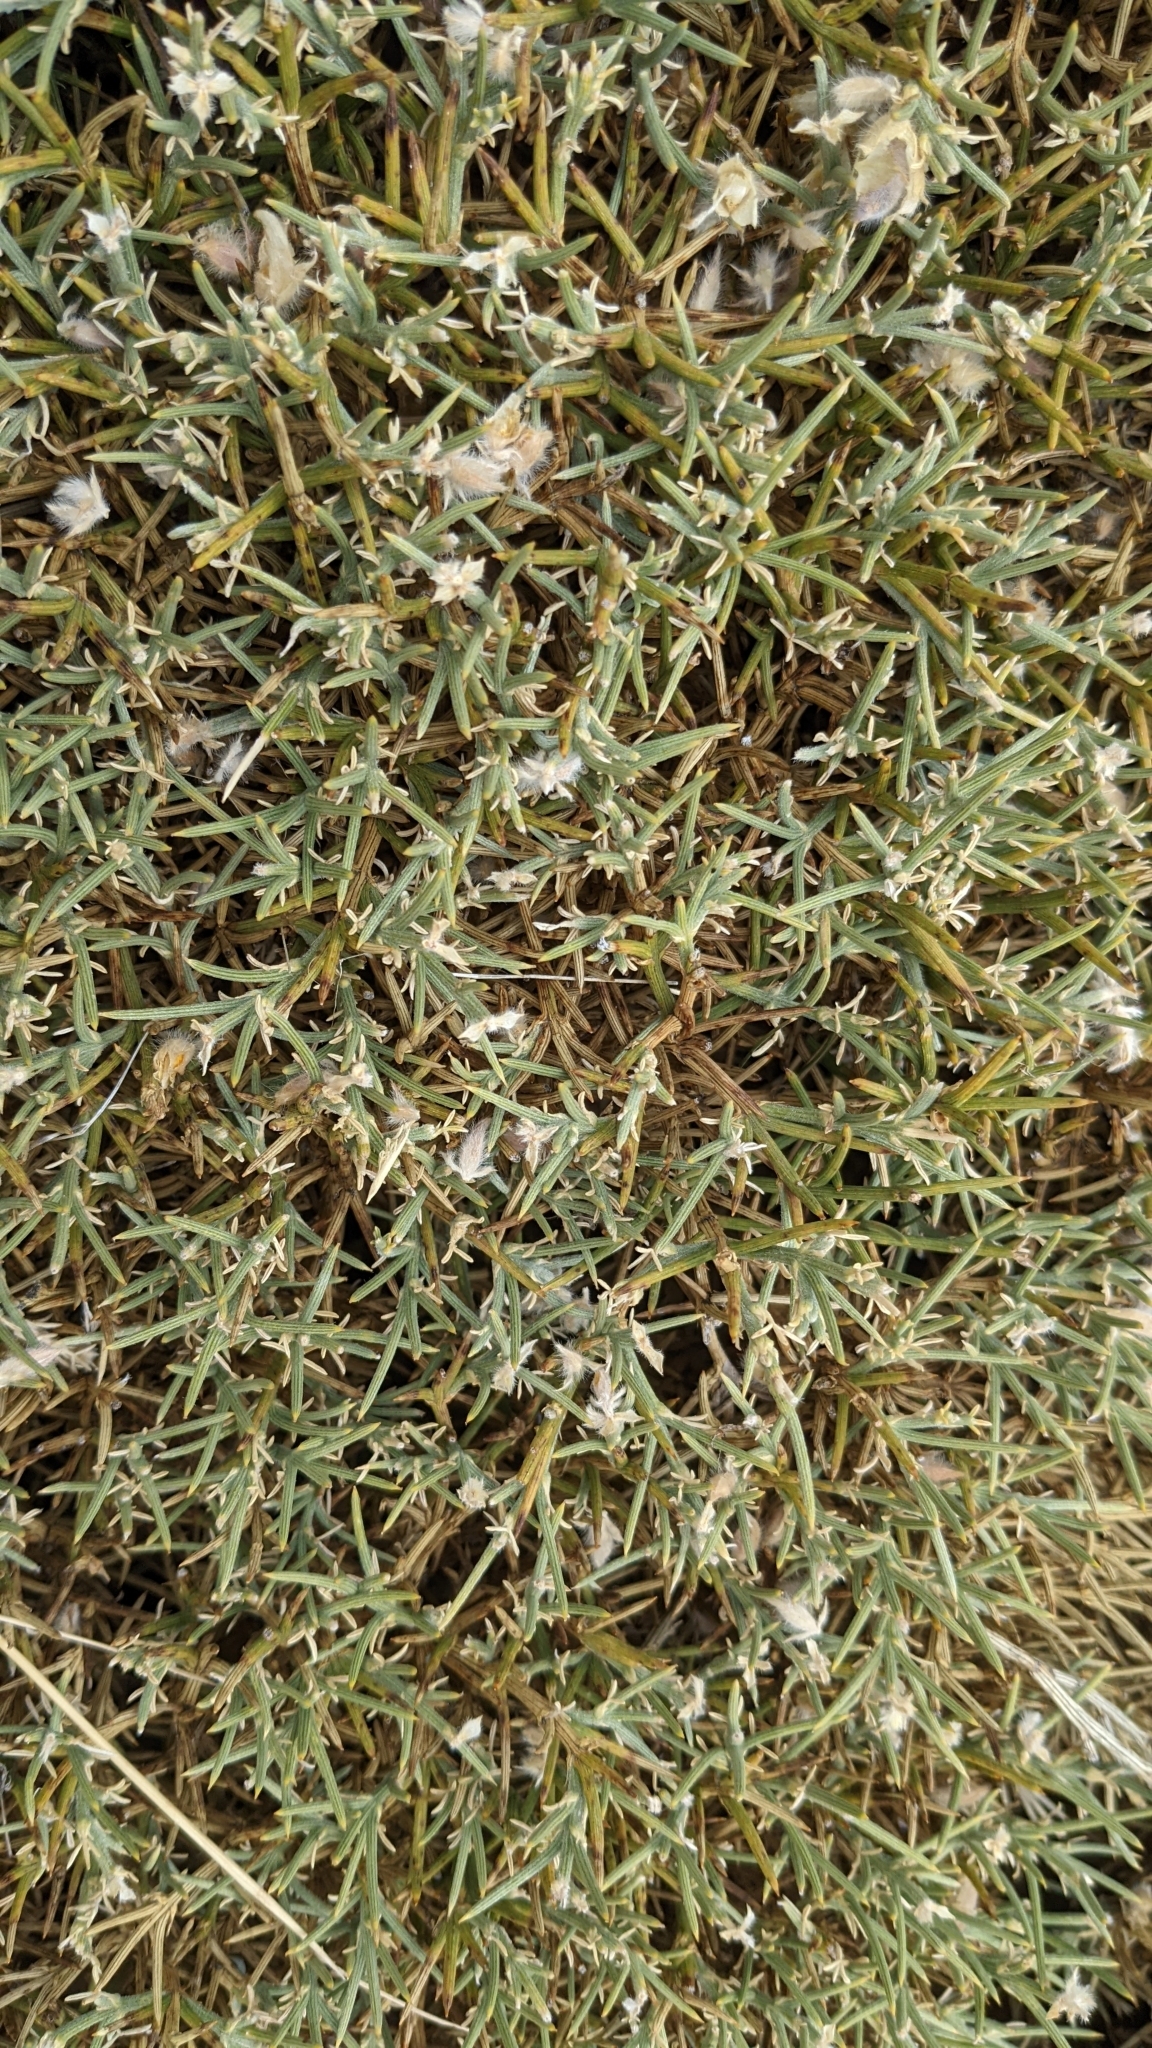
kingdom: Plantae
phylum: Tracheophyta
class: Magnoliopsida
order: Fabales
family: Fabaceae
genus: Echinospartum
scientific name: Echinospartum ibericum
